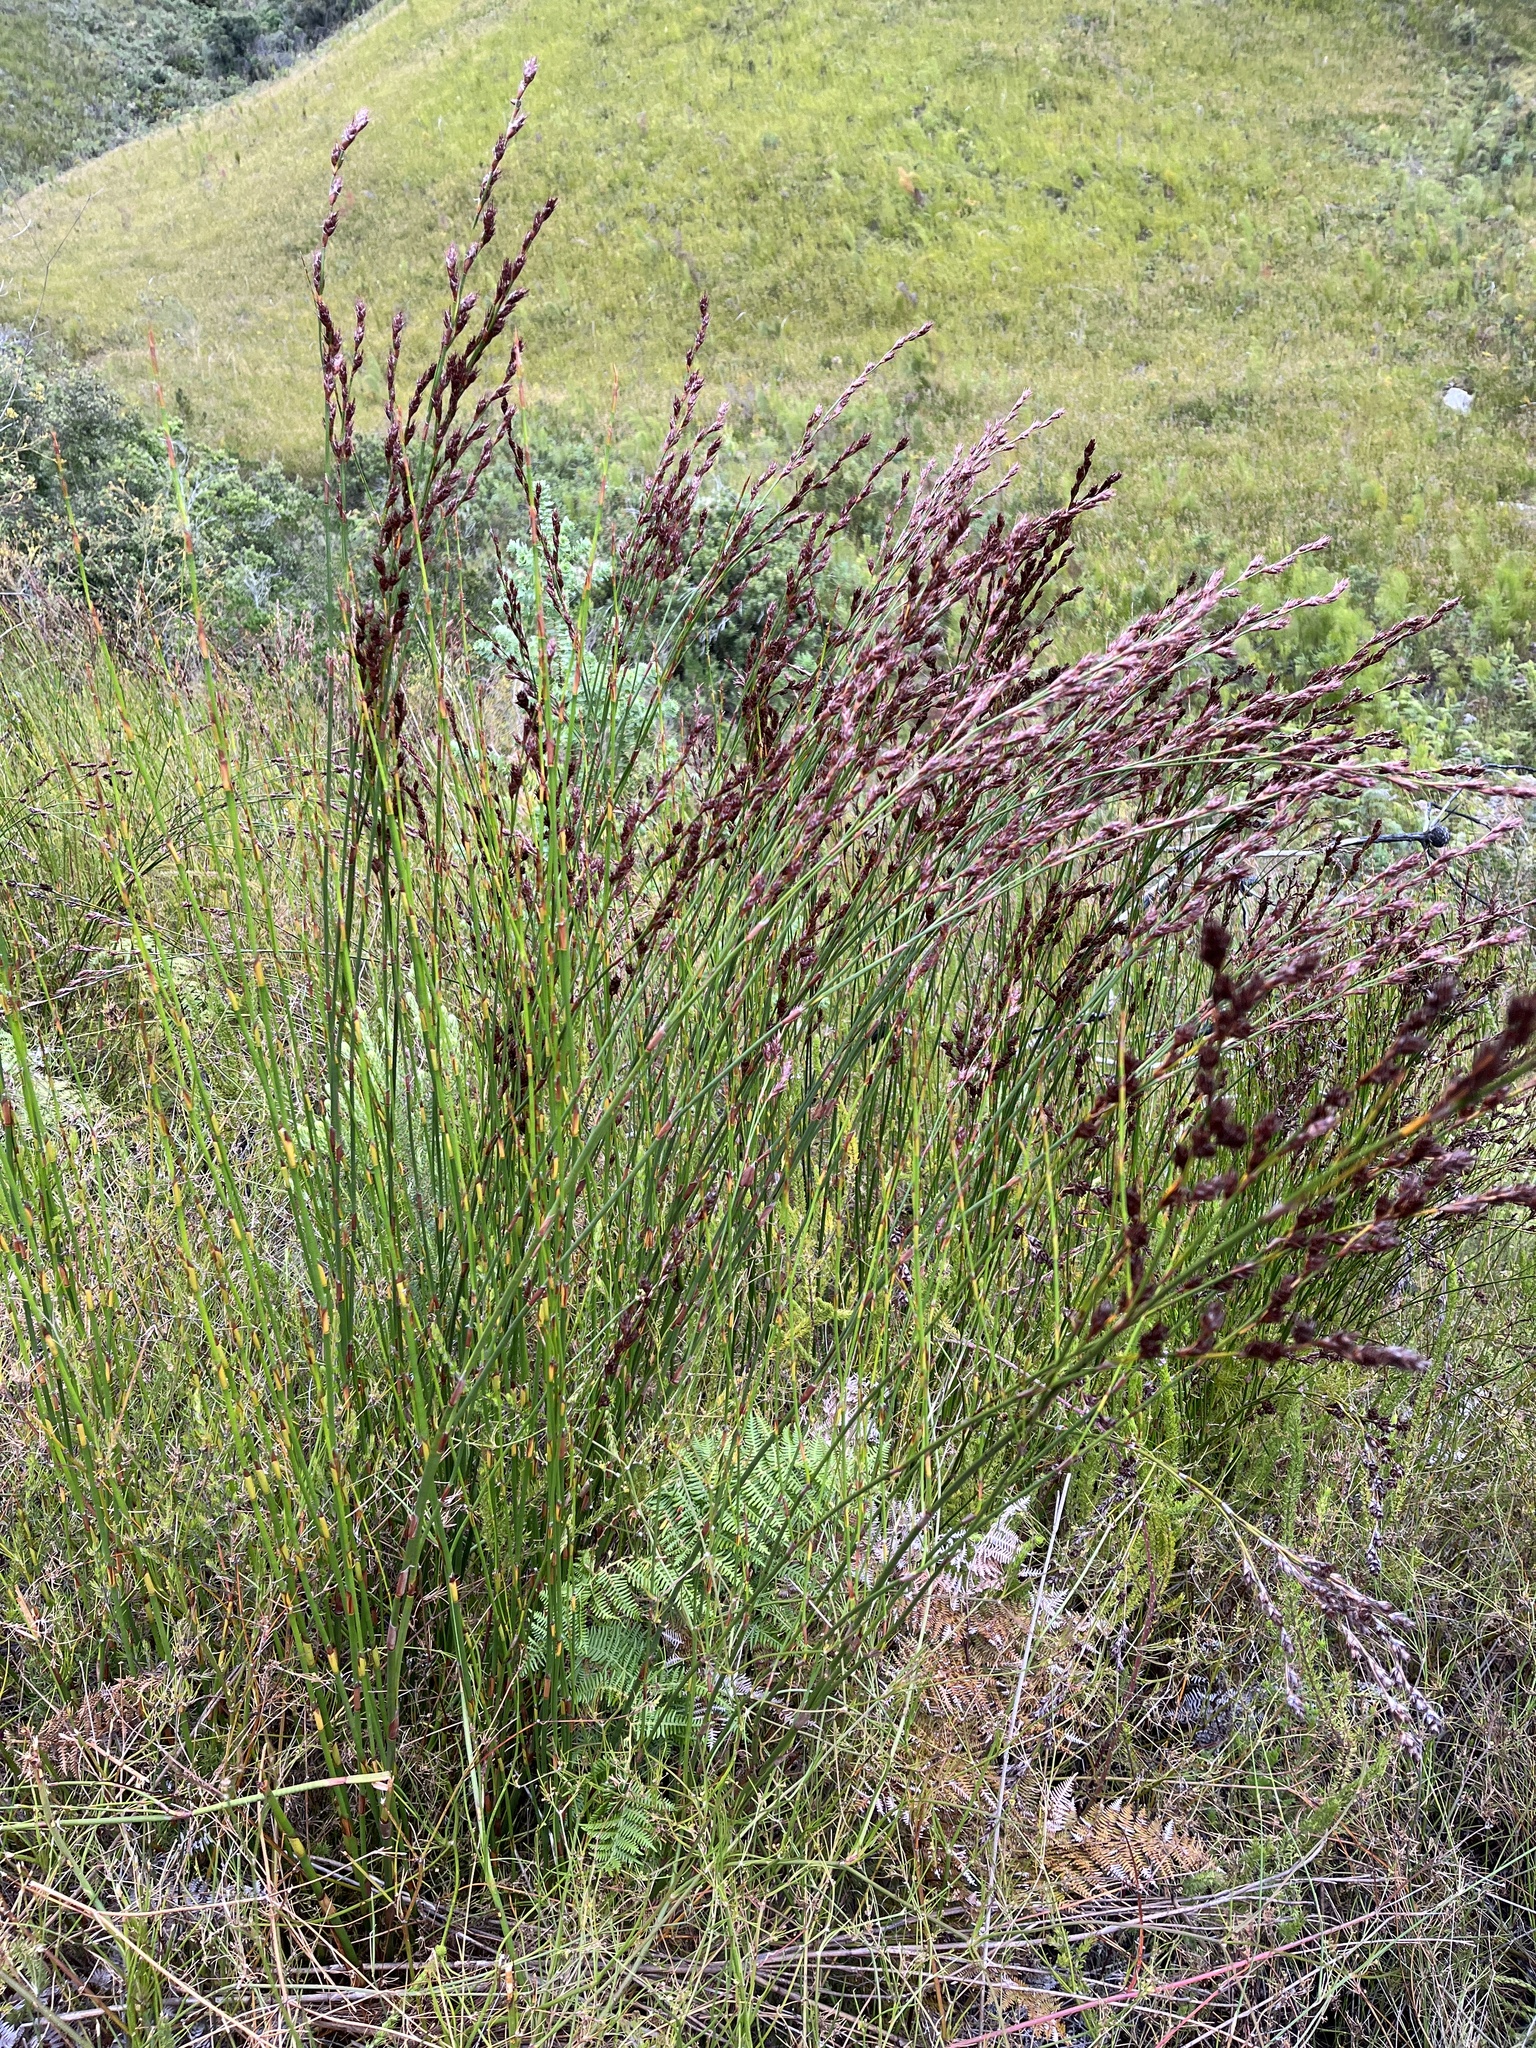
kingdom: Plantae
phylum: Tracheophyta
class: Liliopsida
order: Poales
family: Restionaceae
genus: Restio
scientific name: Restio hystrix
